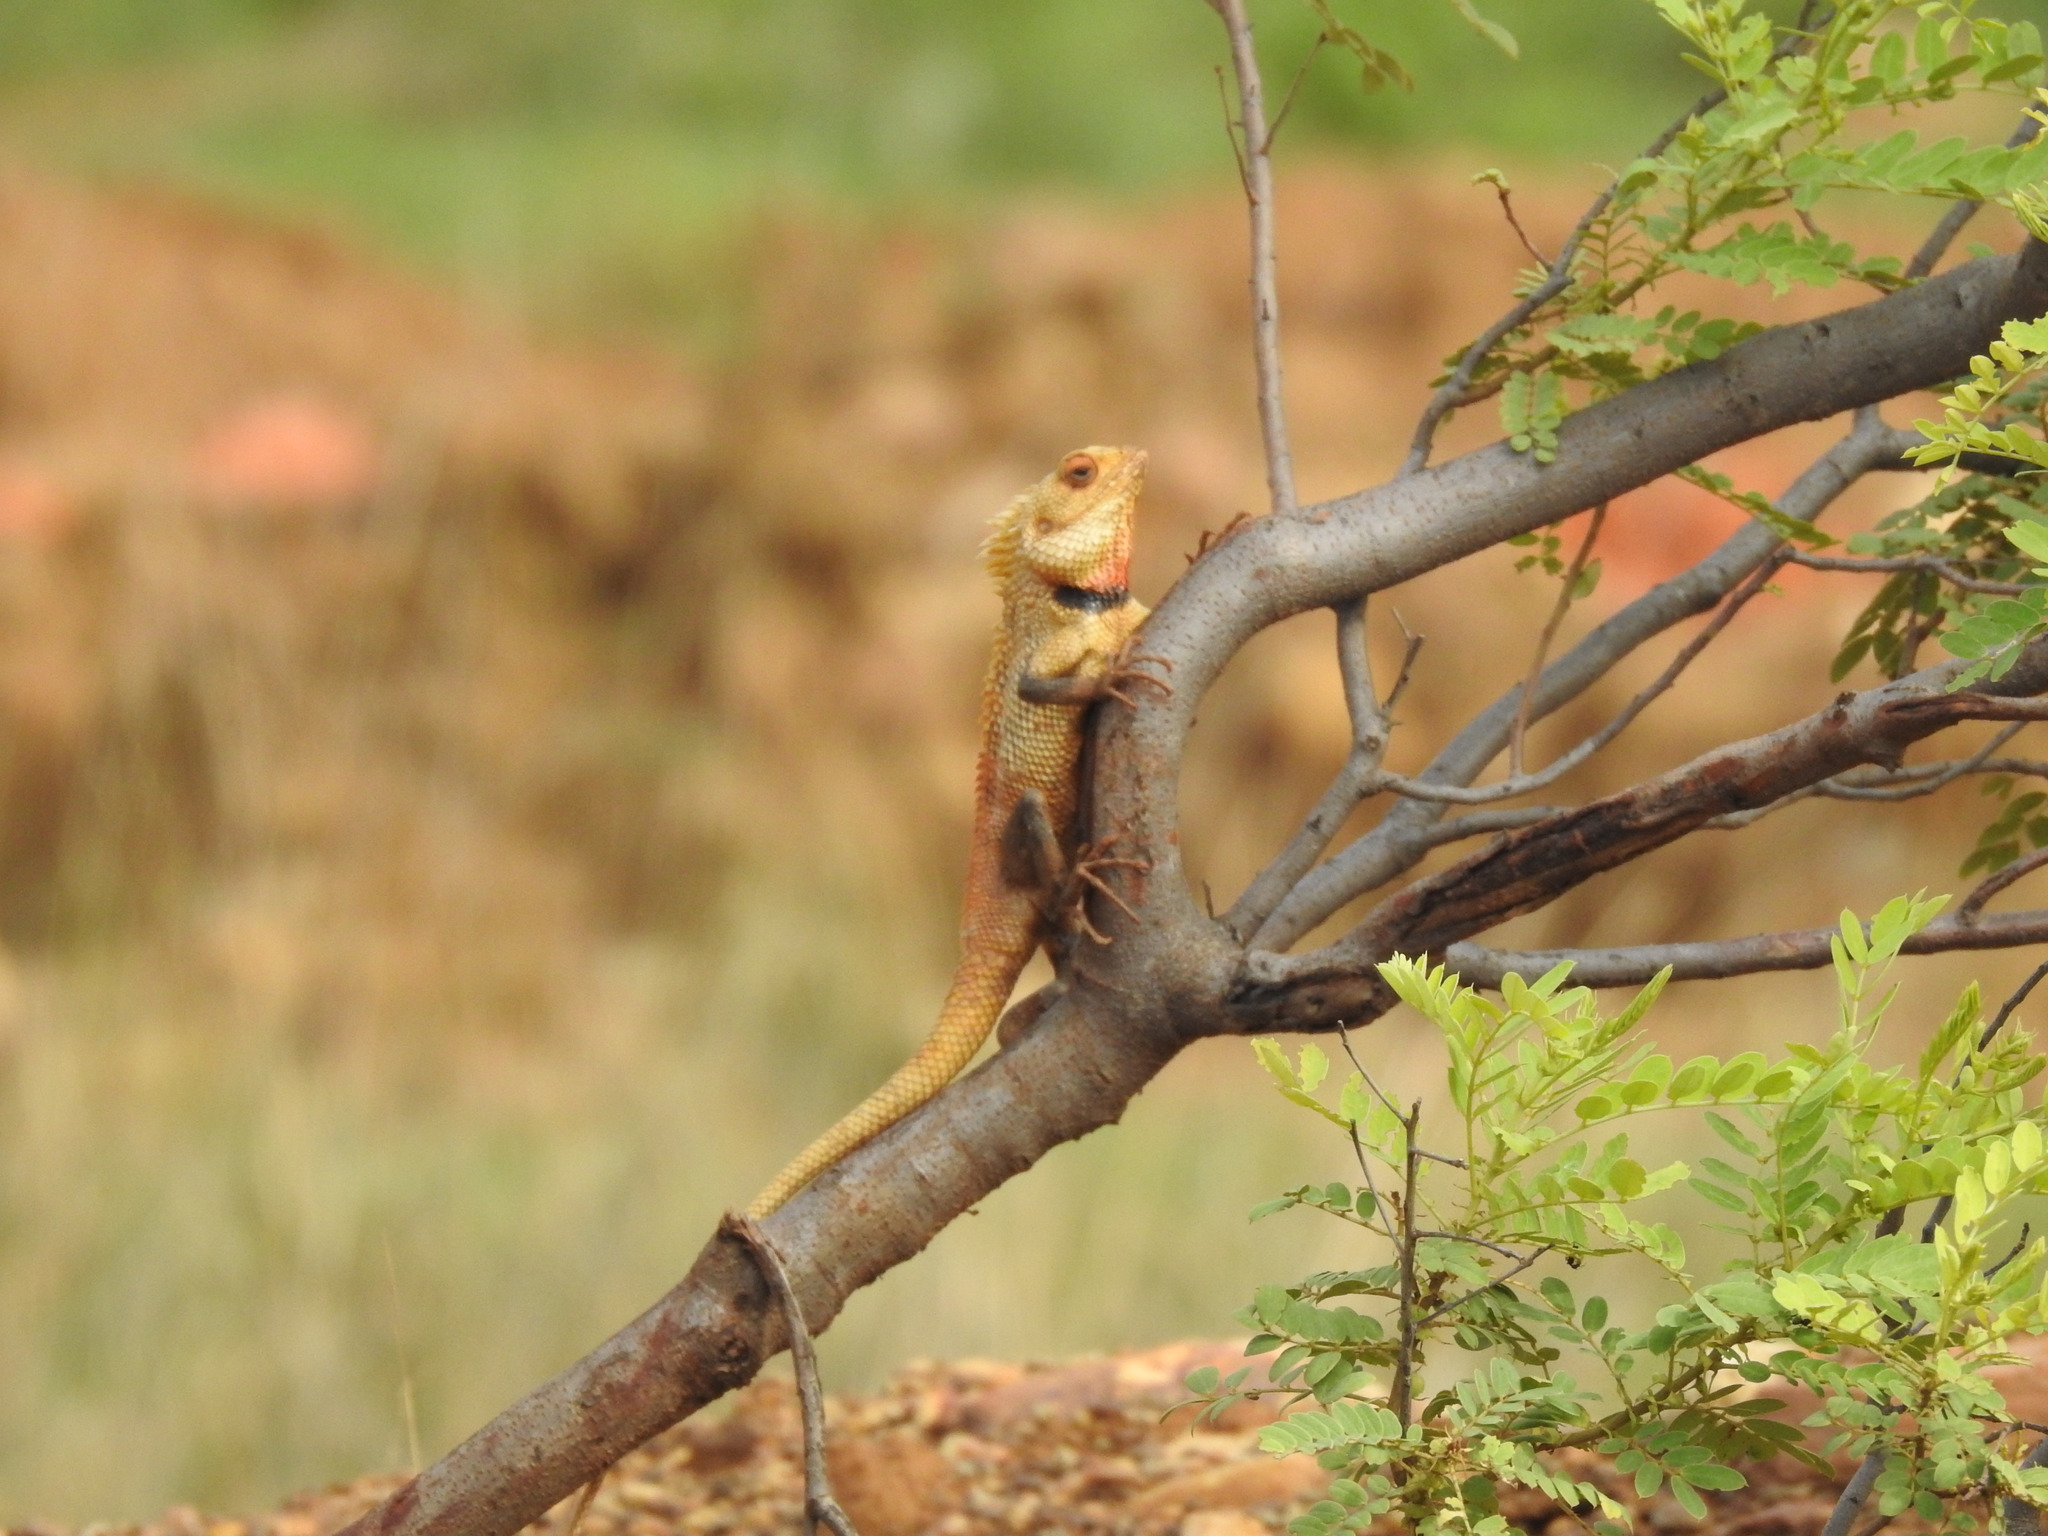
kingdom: Animalia
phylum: Chordata
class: Squamata
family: Agamidae
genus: Calotes
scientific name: Calotes versicolor
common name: Oriental garden lizard
